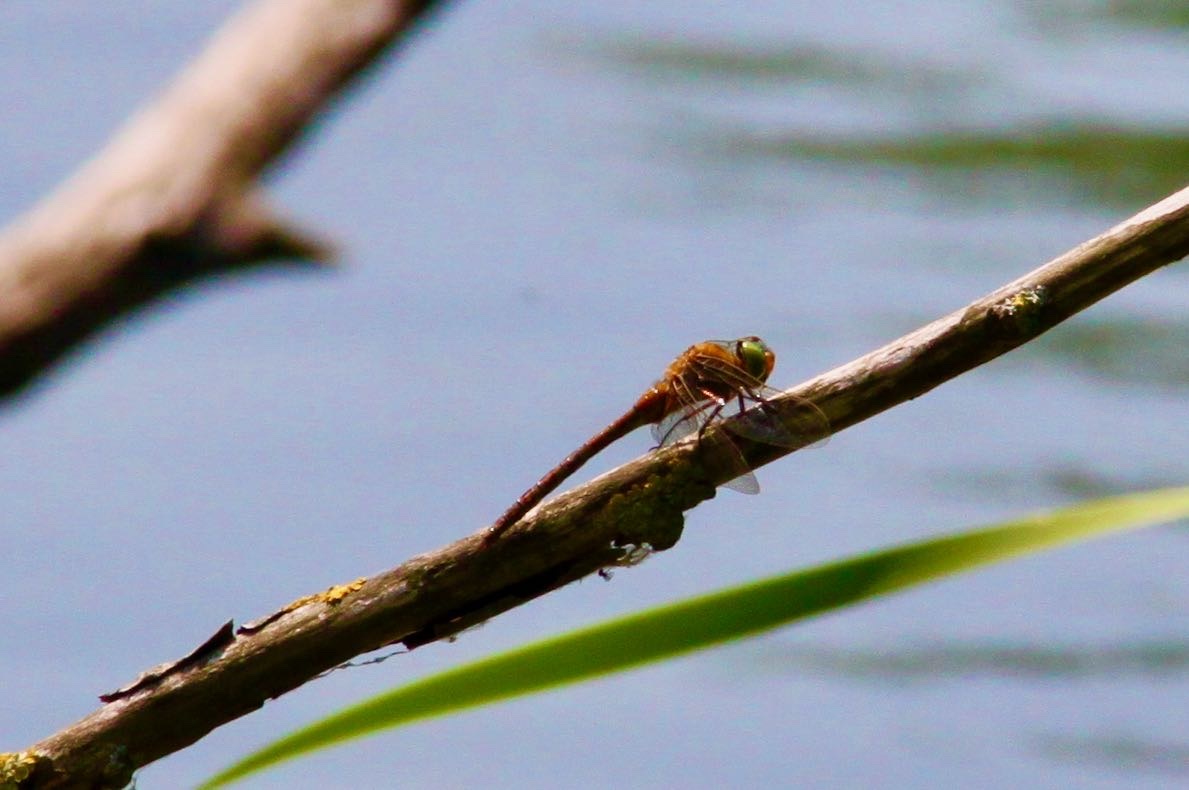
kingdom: Animalia
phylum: Arthropoda
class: Insecta
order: Odonata
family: Aeshnidae
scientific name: Aeshnidae
